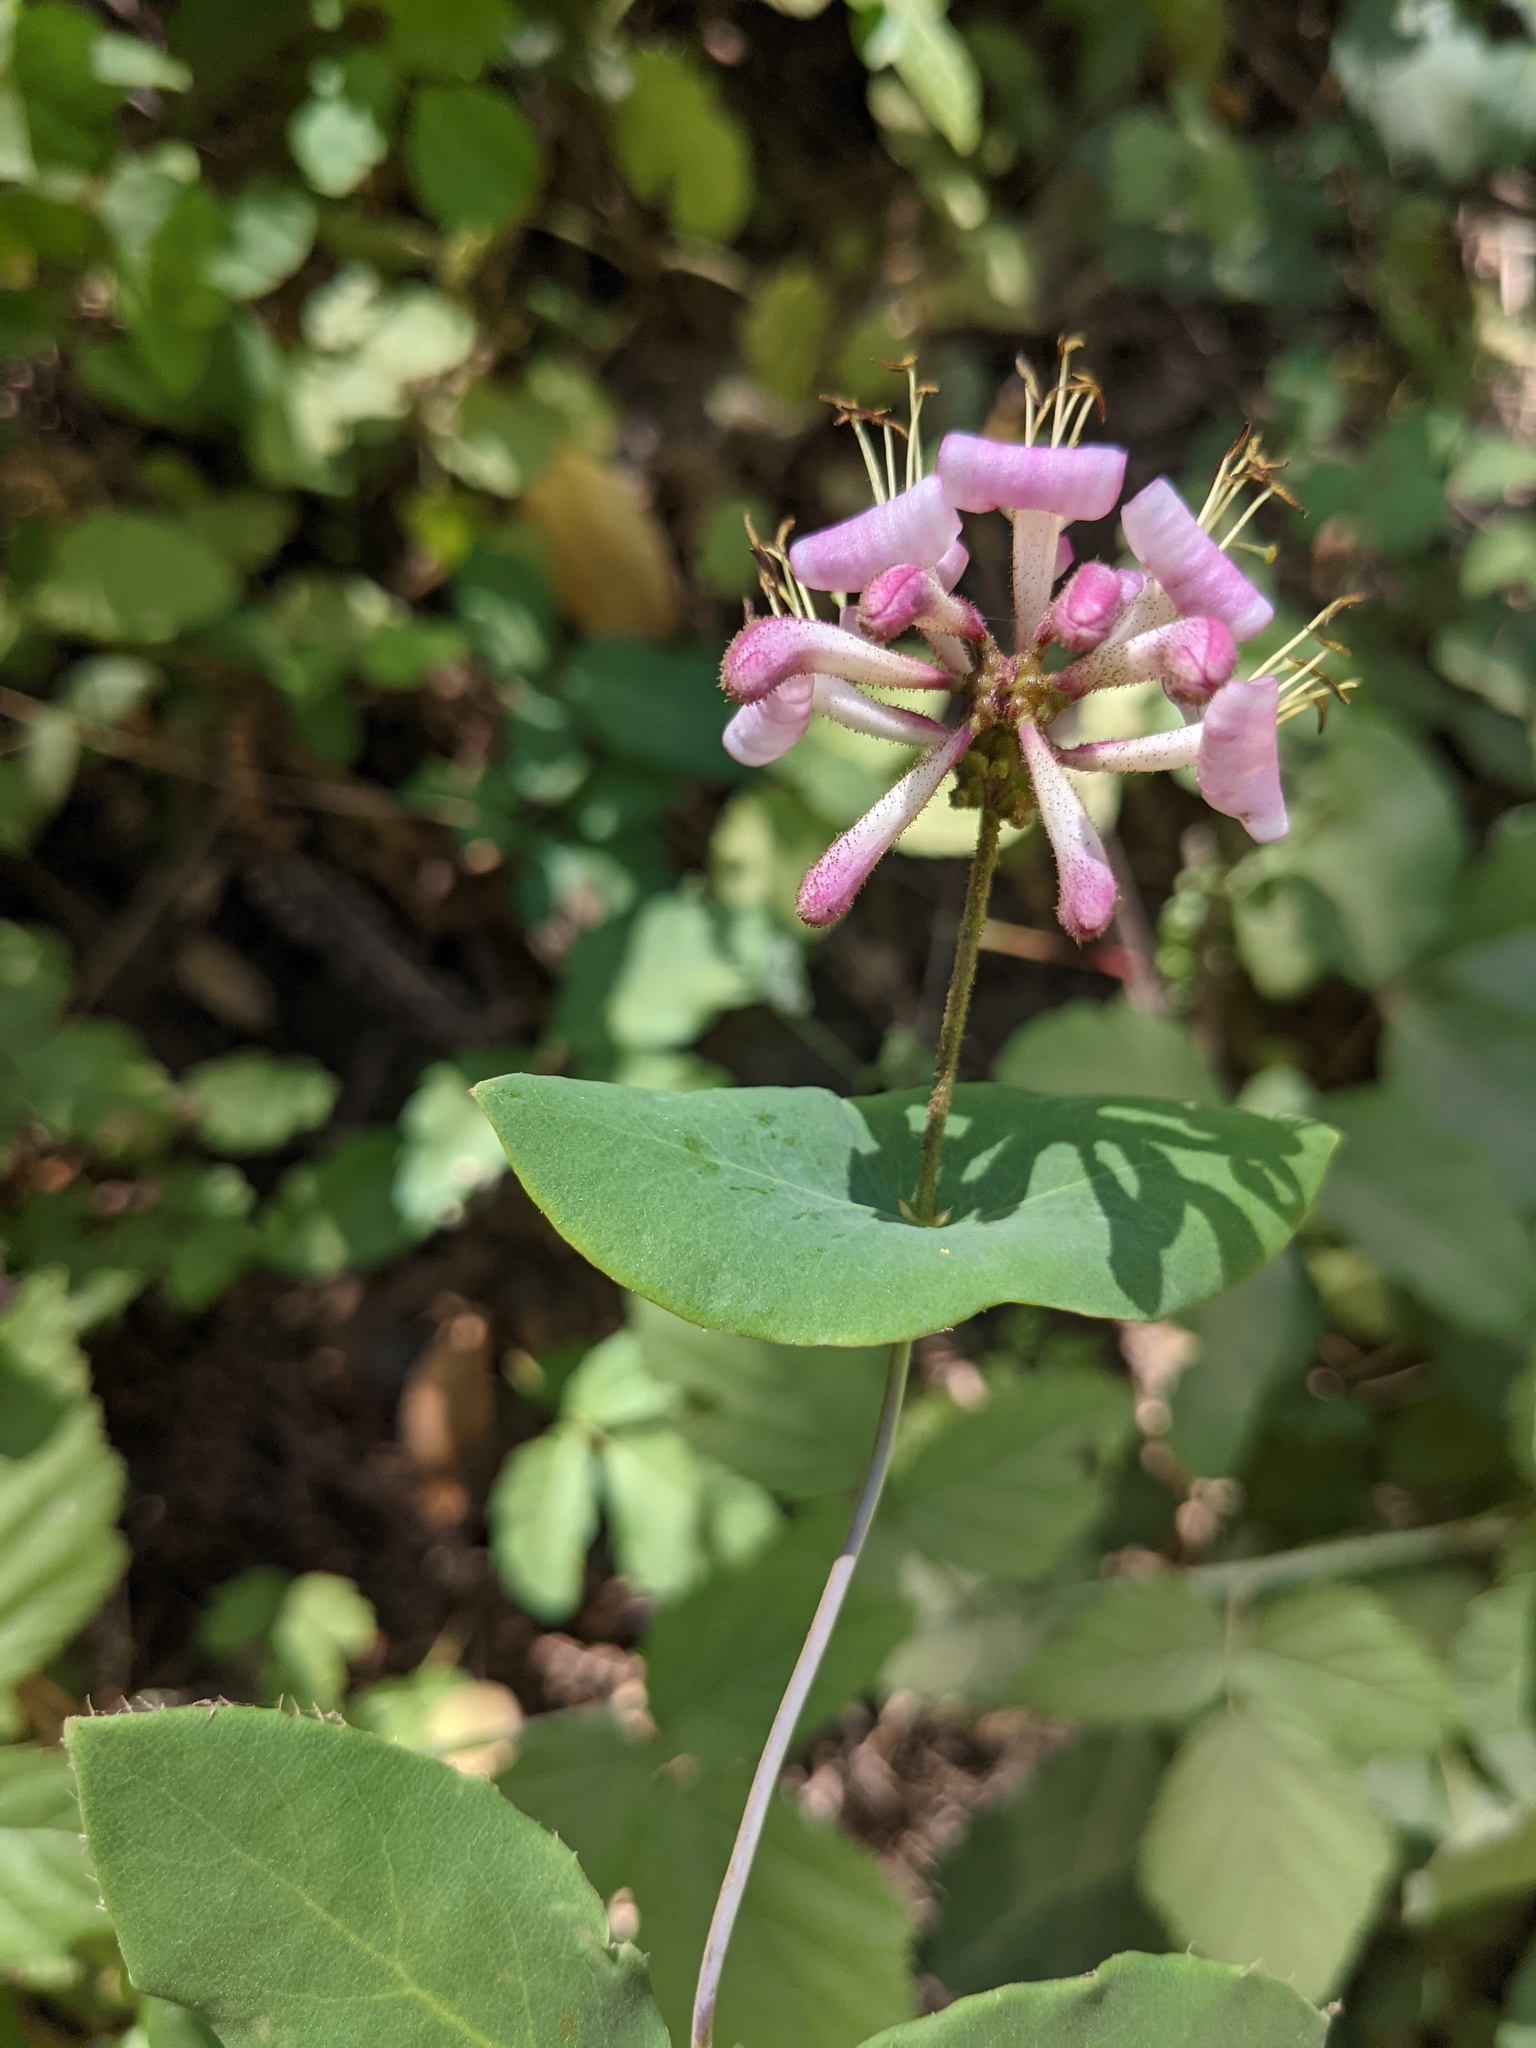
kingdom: Plantae
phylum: Tracheophyta
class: Magnoliopsida
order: Dipsacales
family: Caprifoliaceae
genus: Lonicera
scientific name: Lonicera hispidula
